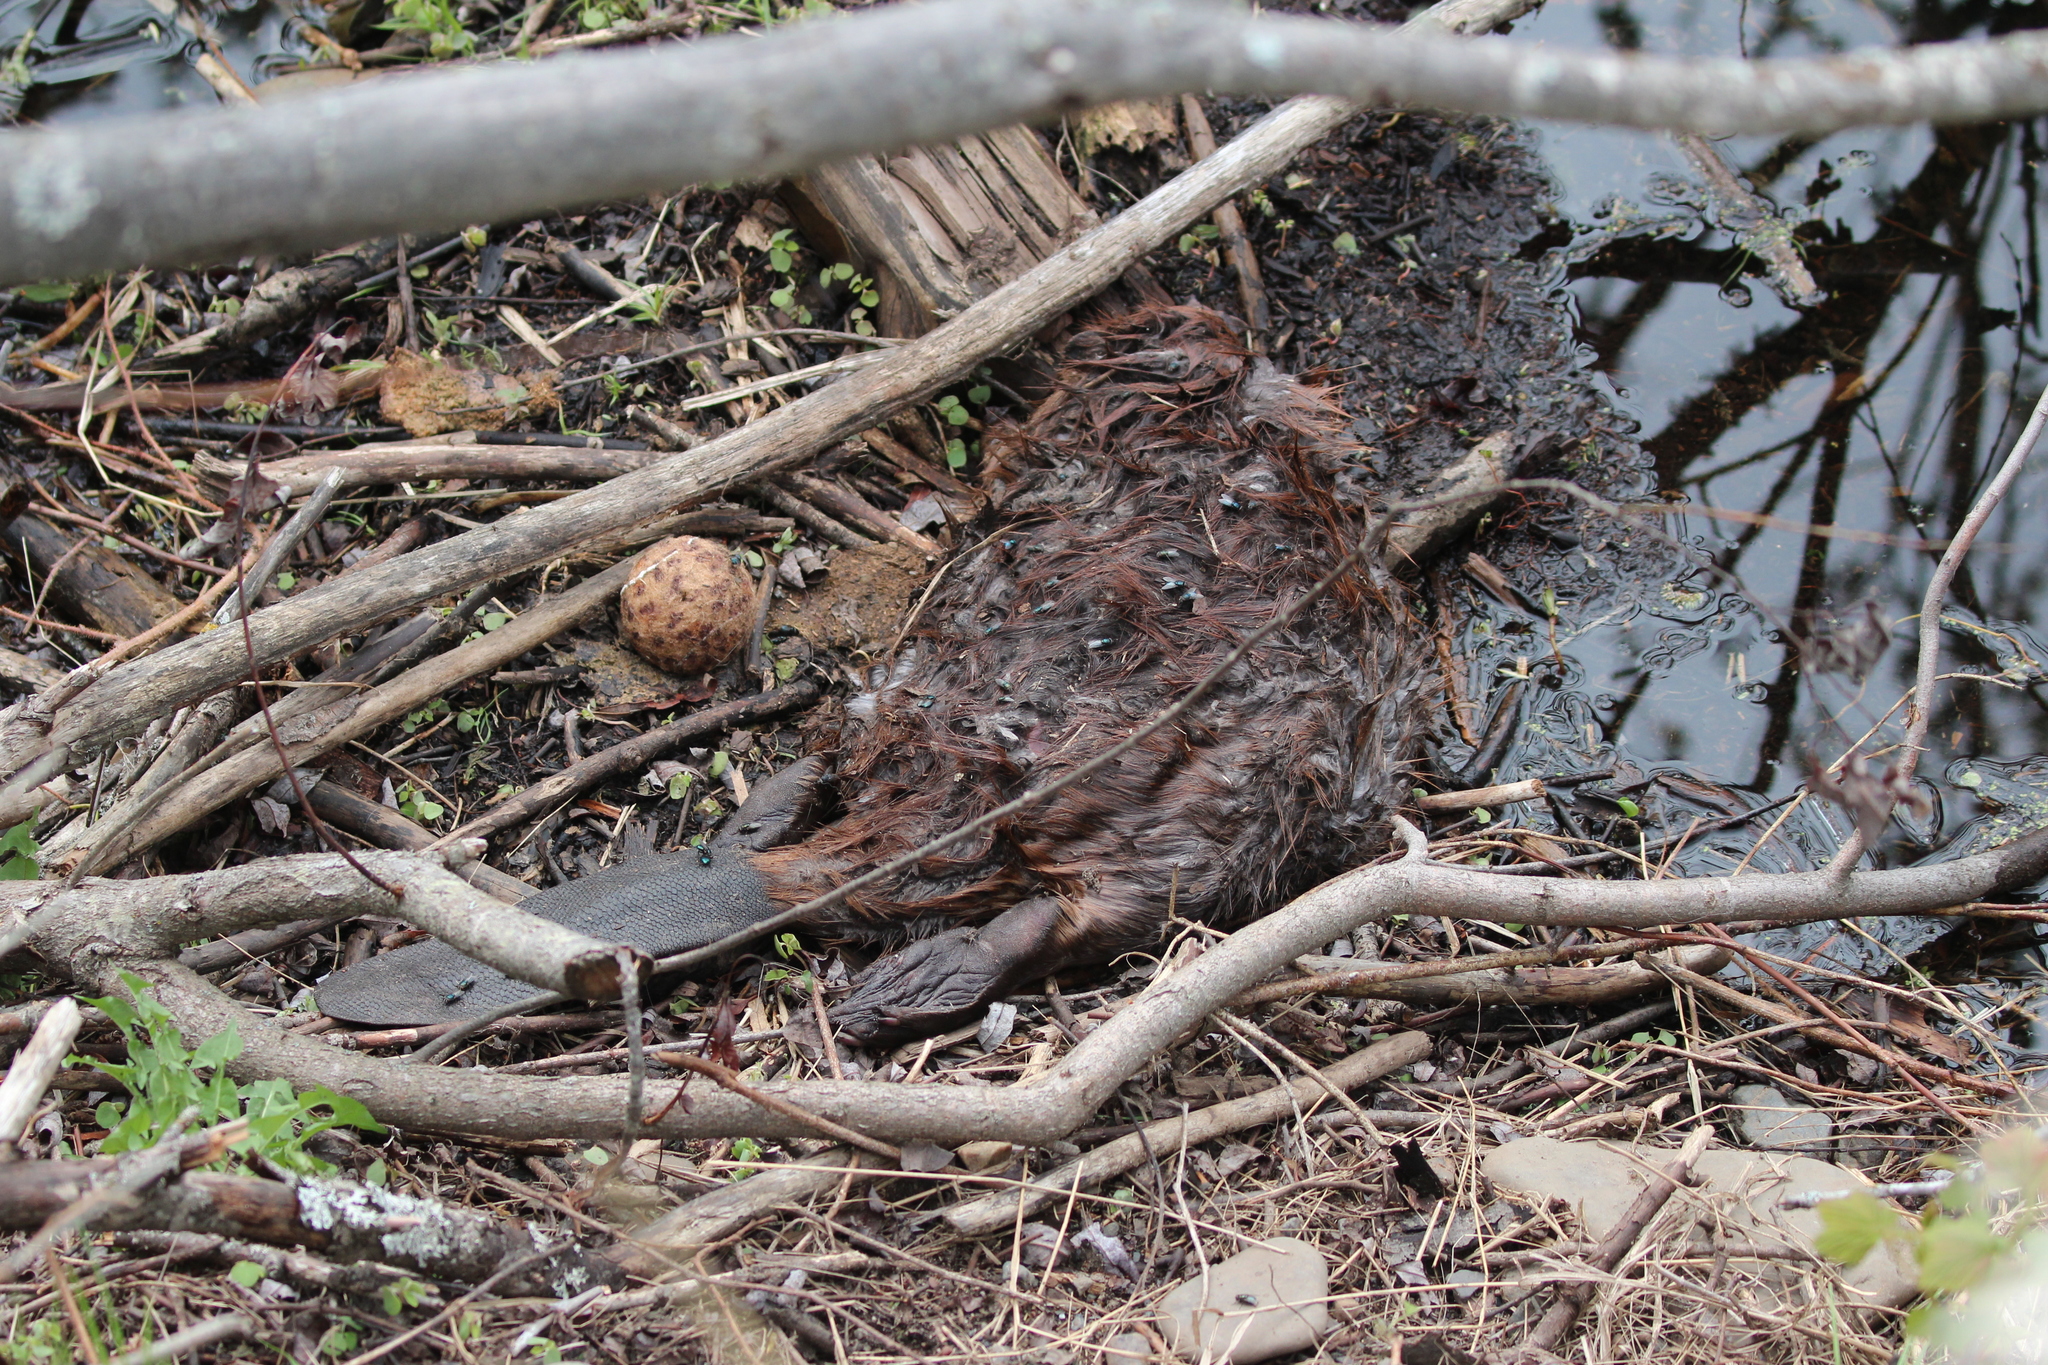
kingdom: Animalia
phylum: Chordata
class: Mammalia
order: Rodentia
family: Castoridae
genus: Castor
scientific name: Castor canadensis
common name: American beaver
